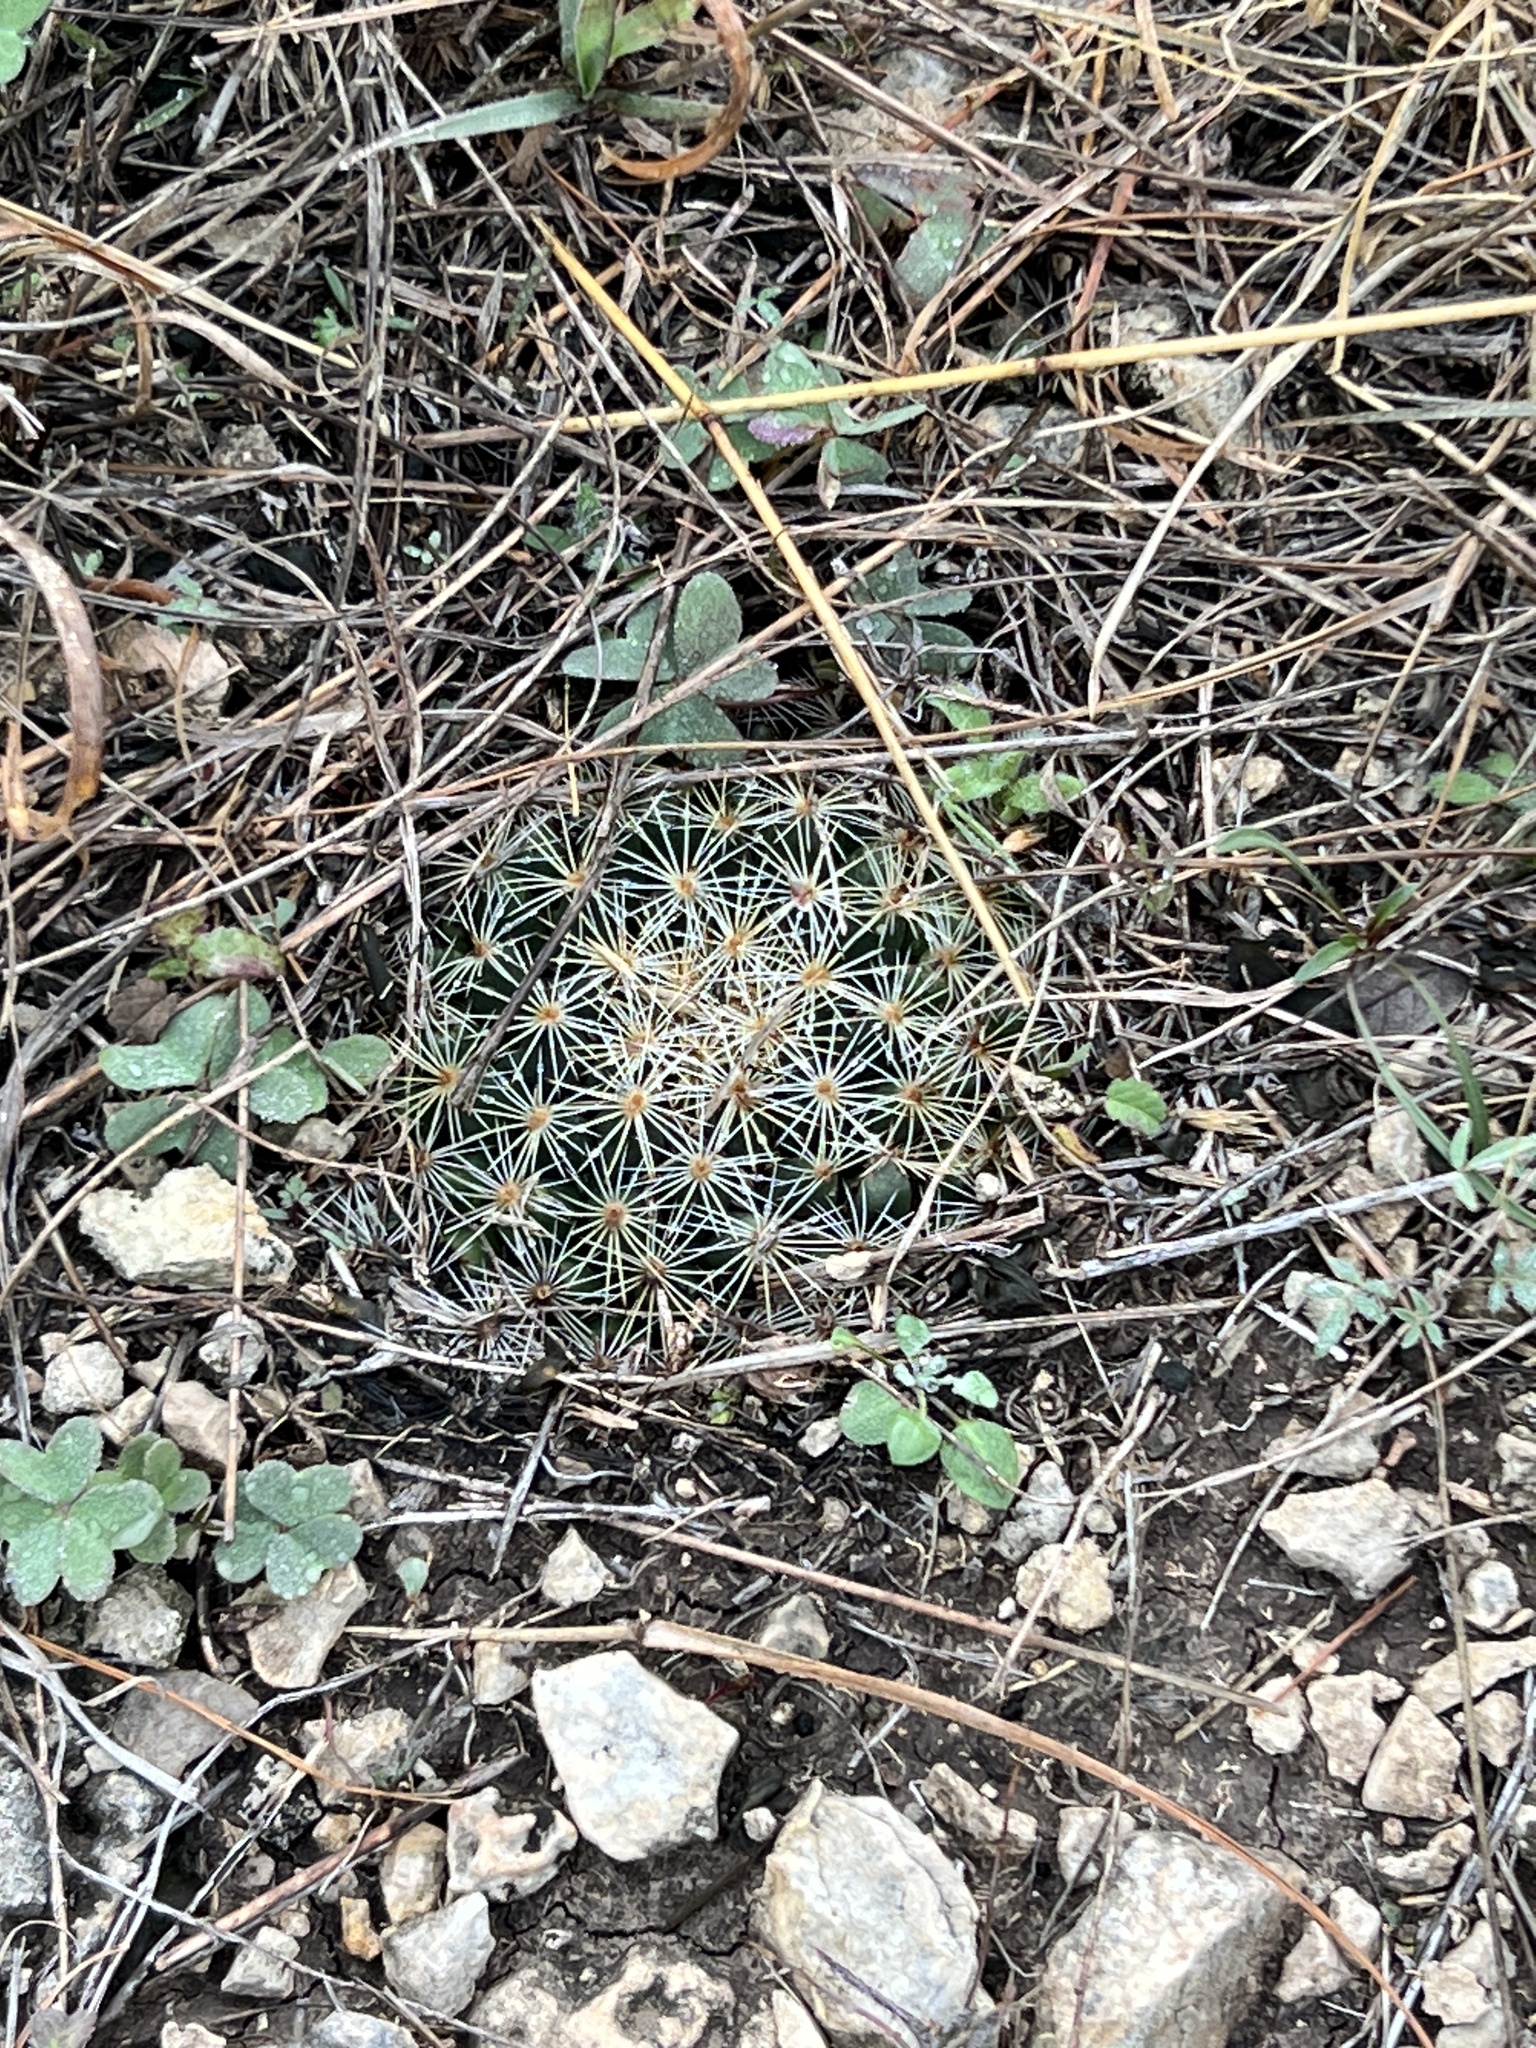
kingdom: Plantae
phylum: Tracheophyta
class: Magnoliopsida
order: Caryophyllales
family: Cactaceae
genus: Mammillaria
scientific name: Mammillaria heyderi
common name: Little nipple cactus
